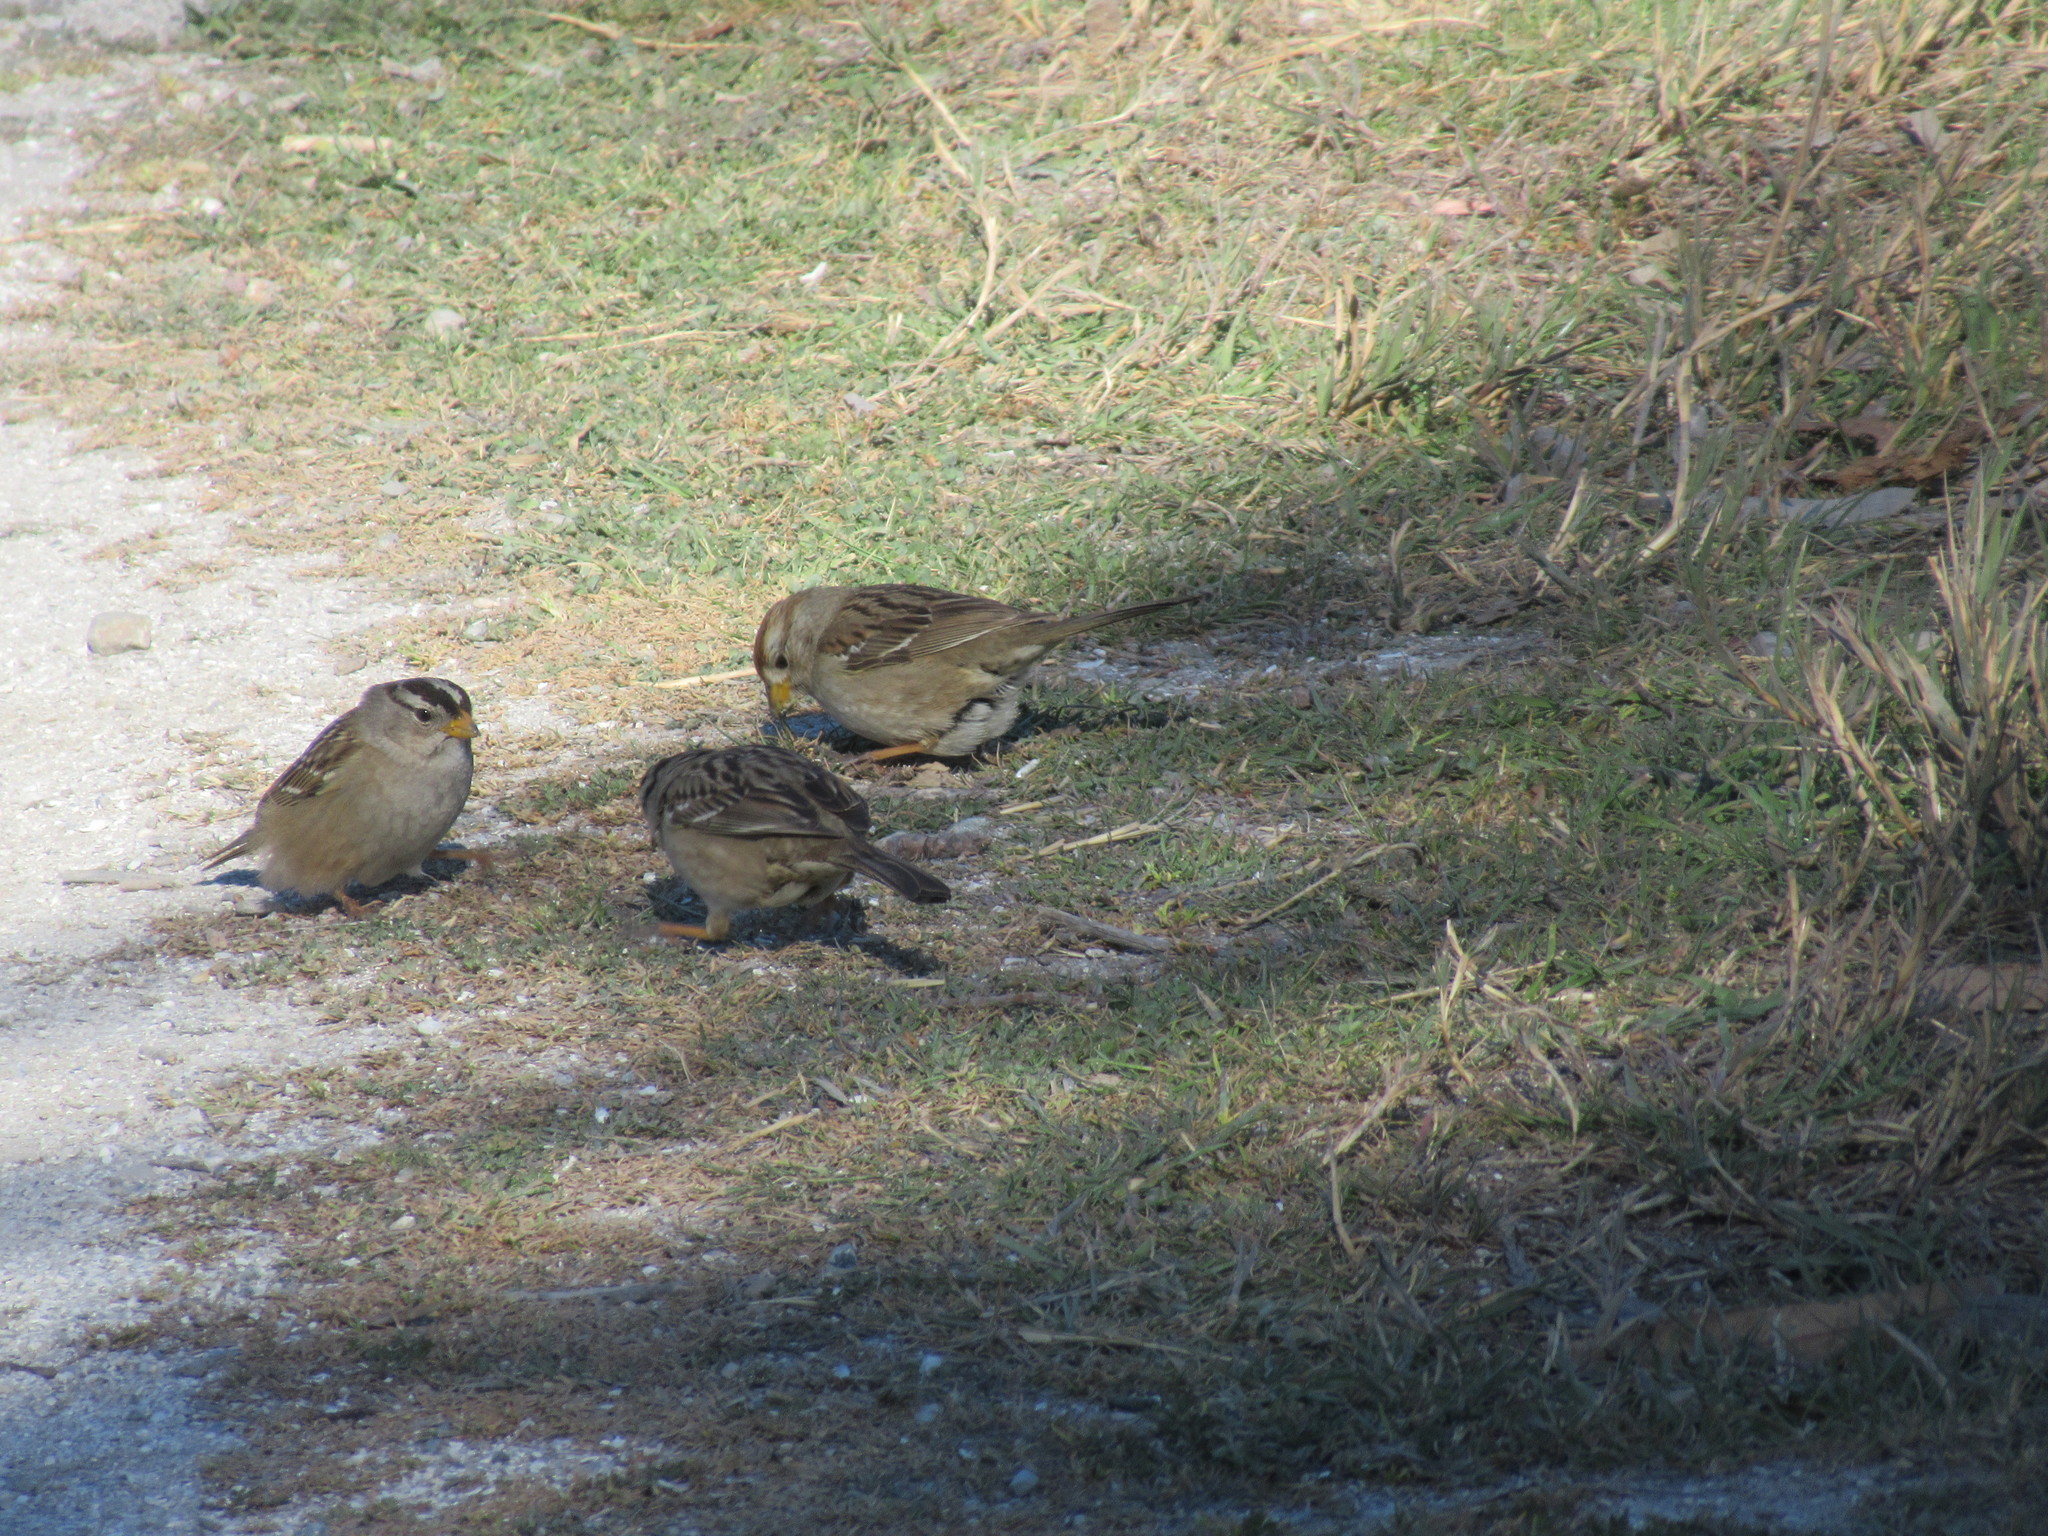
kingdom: Animalia
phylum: Chordata
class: Aves
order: Passeriformes
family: Passerellidae
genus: Zonotrichia
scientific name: Zonotrichia leucophrys
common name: White-crowned sparrow
